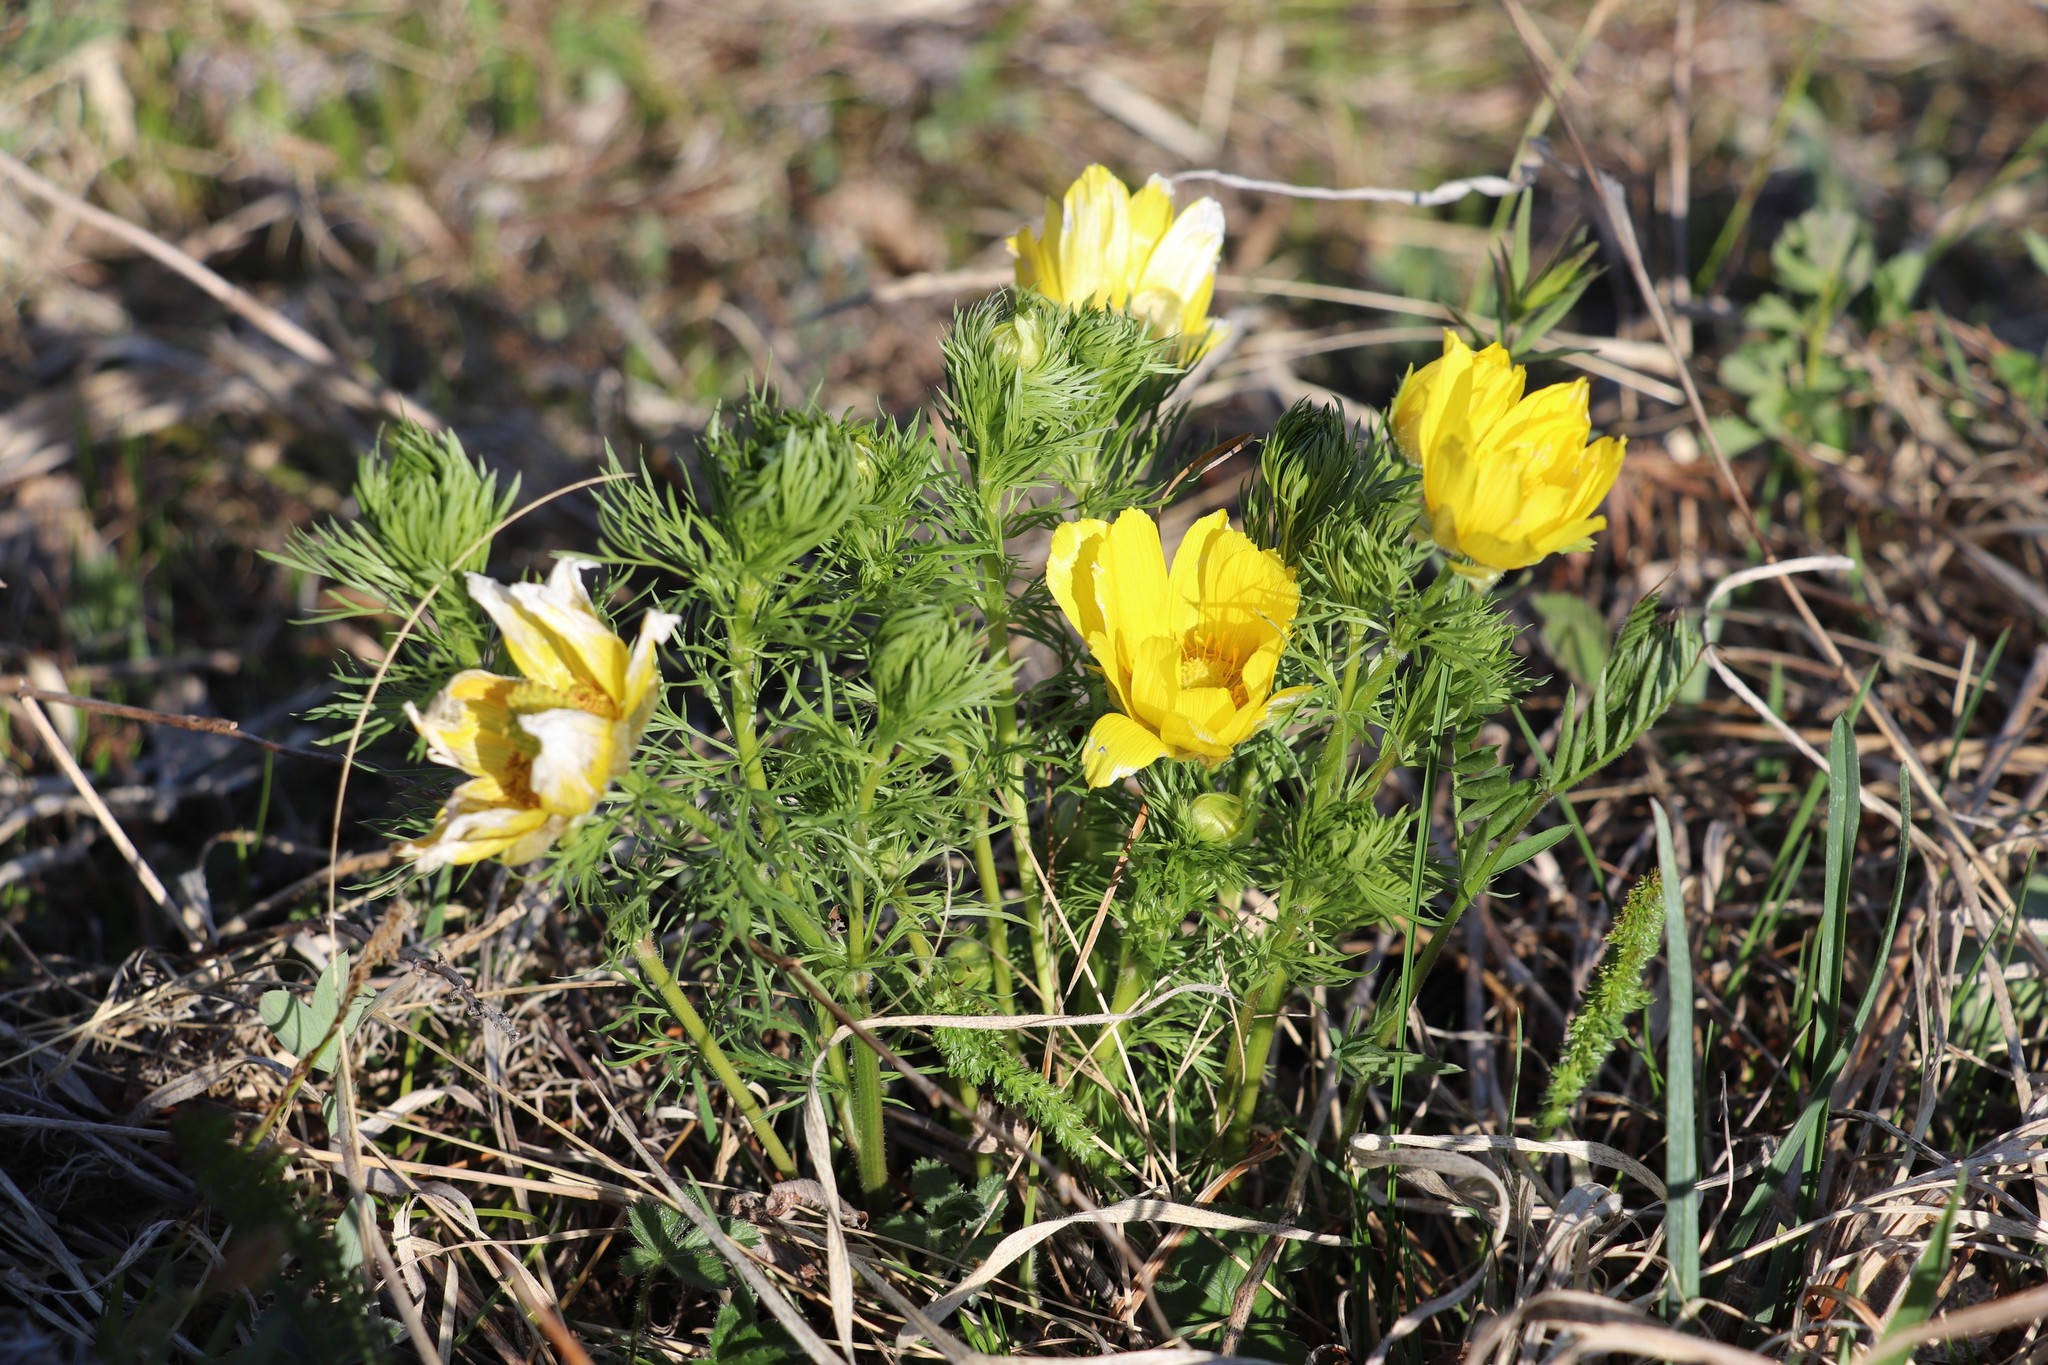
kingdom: Plantae
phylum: Tracheophyta
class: Magnoliopsida
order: Ranunculales
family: Ranunculaceae
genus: Adonis
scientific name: Adonis vernalis
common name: Yellow pheasants-eye
